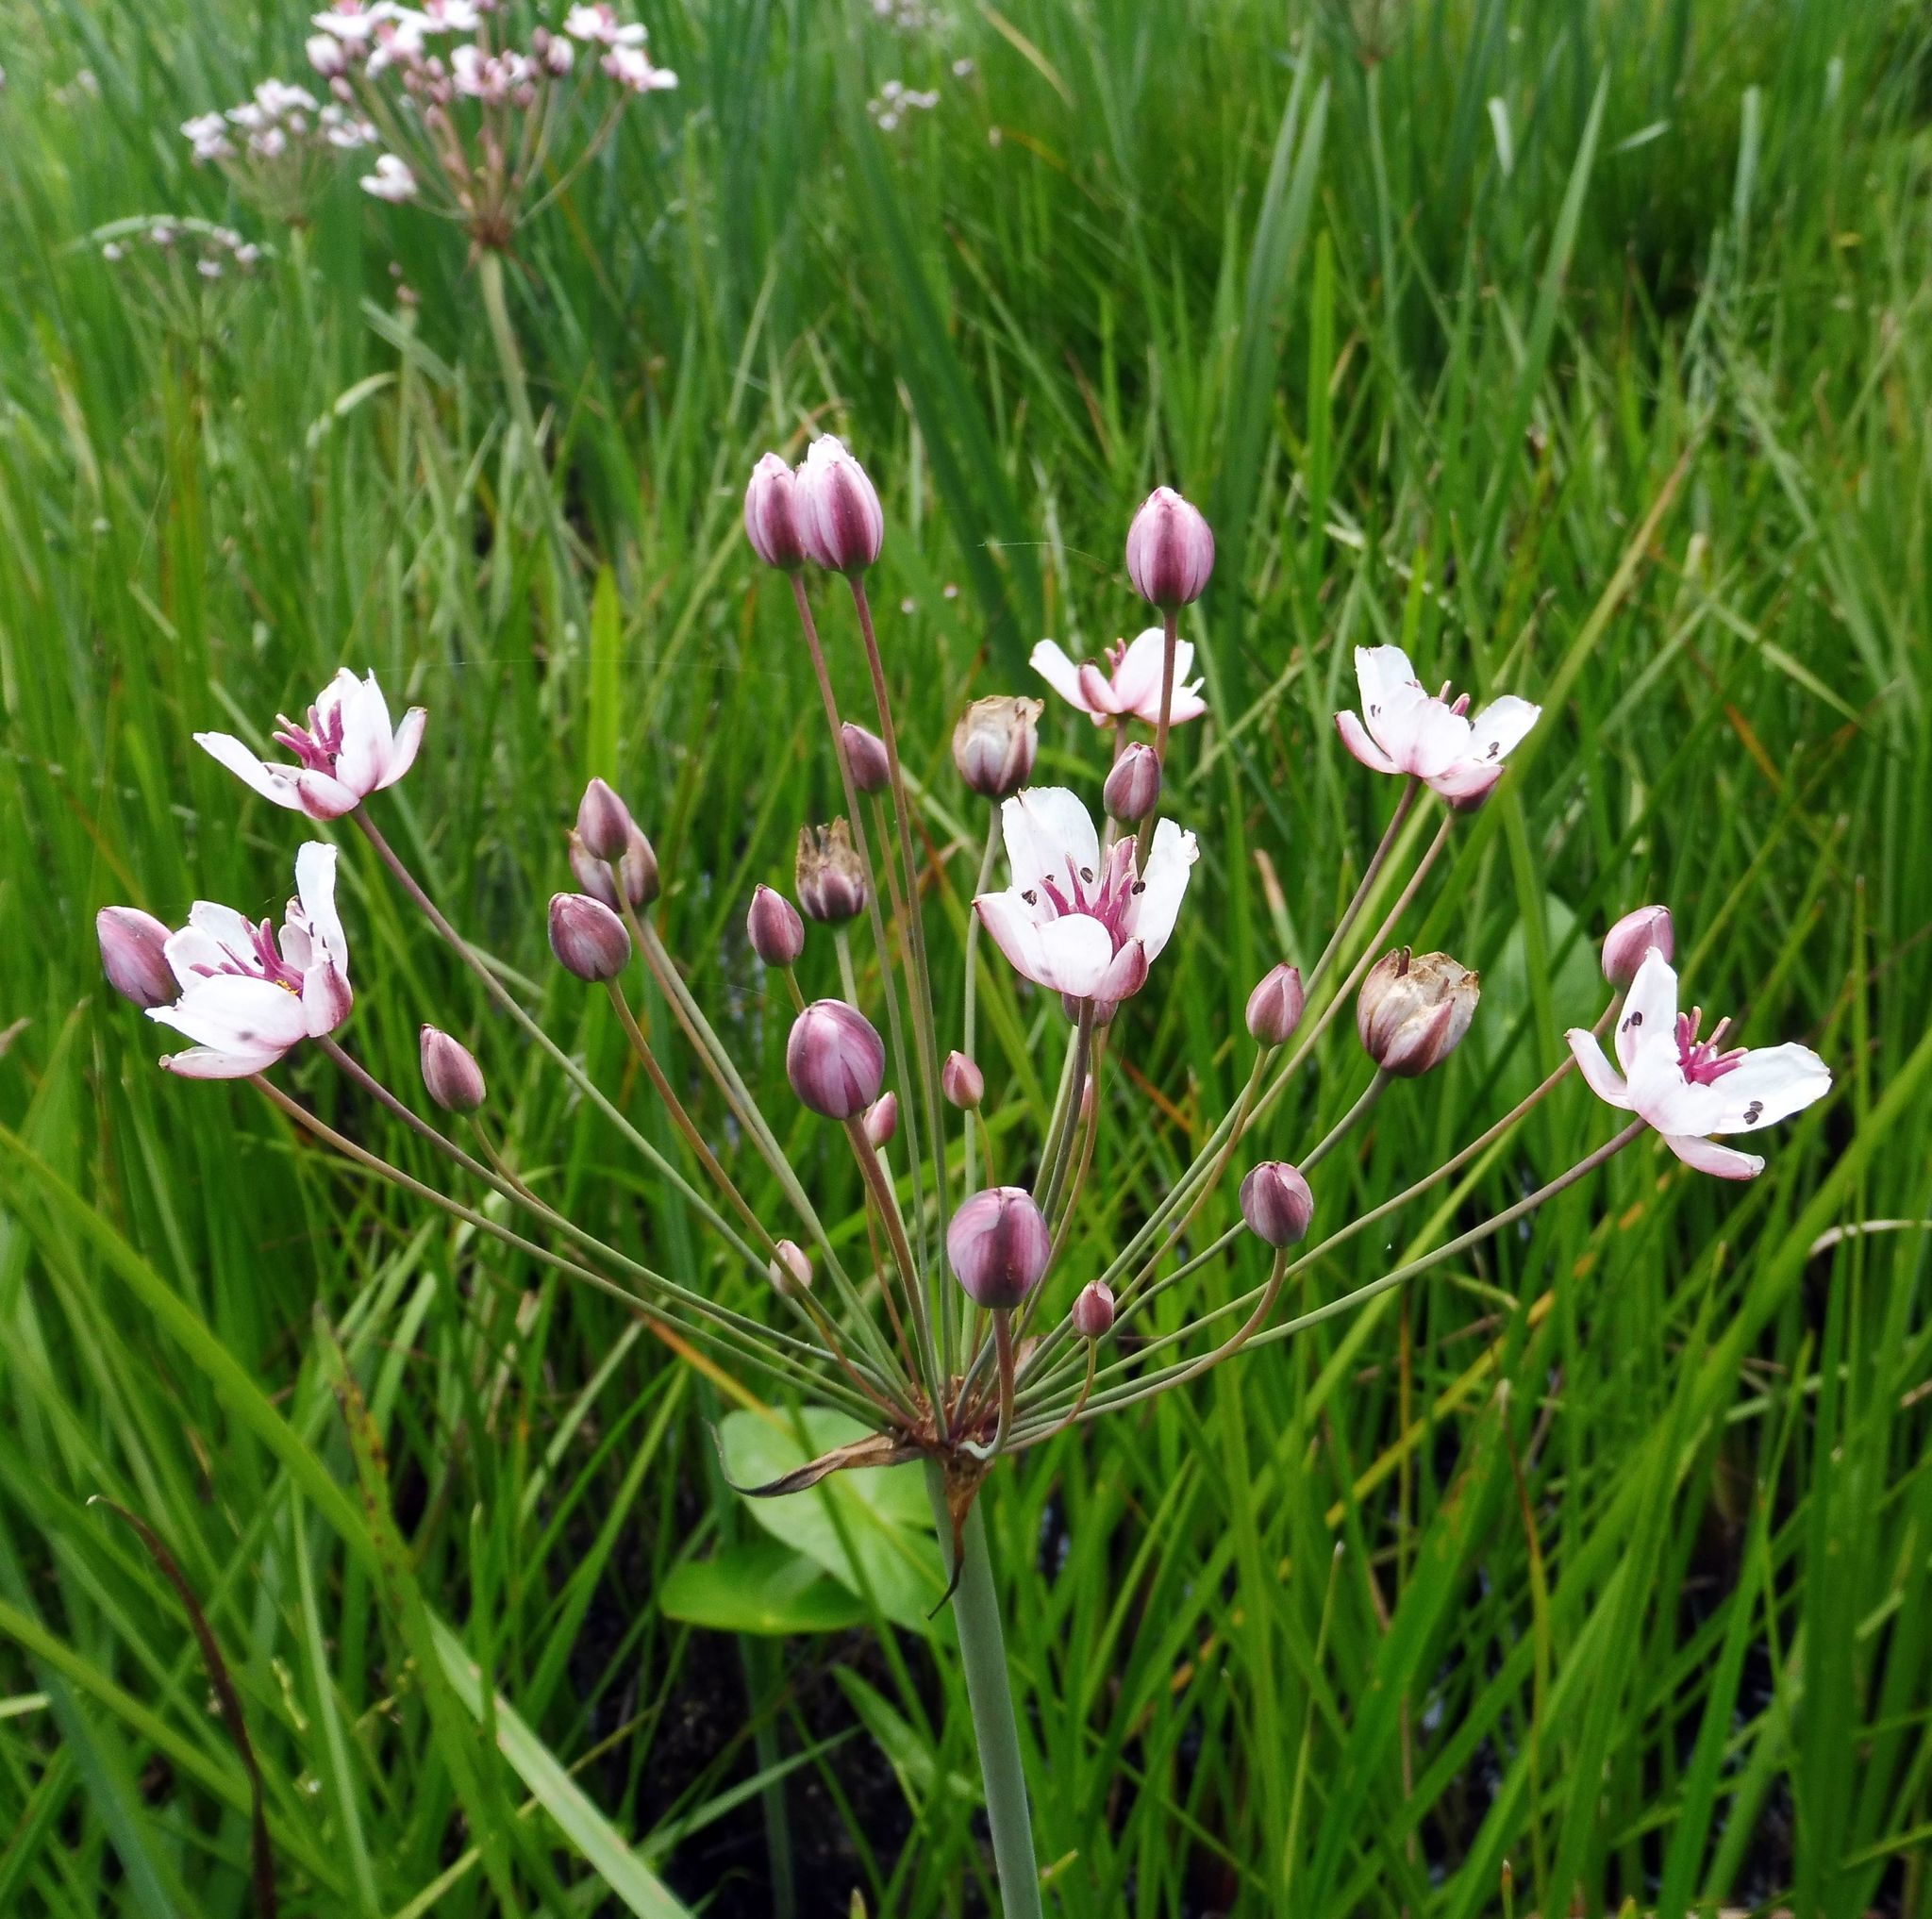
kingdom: Plantae
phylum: Tracheophyta
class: Liliopsida
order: Alismatales
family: Butomaceae
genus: Butomus
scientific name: Butomus umbellatus
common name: Flowering-rush
